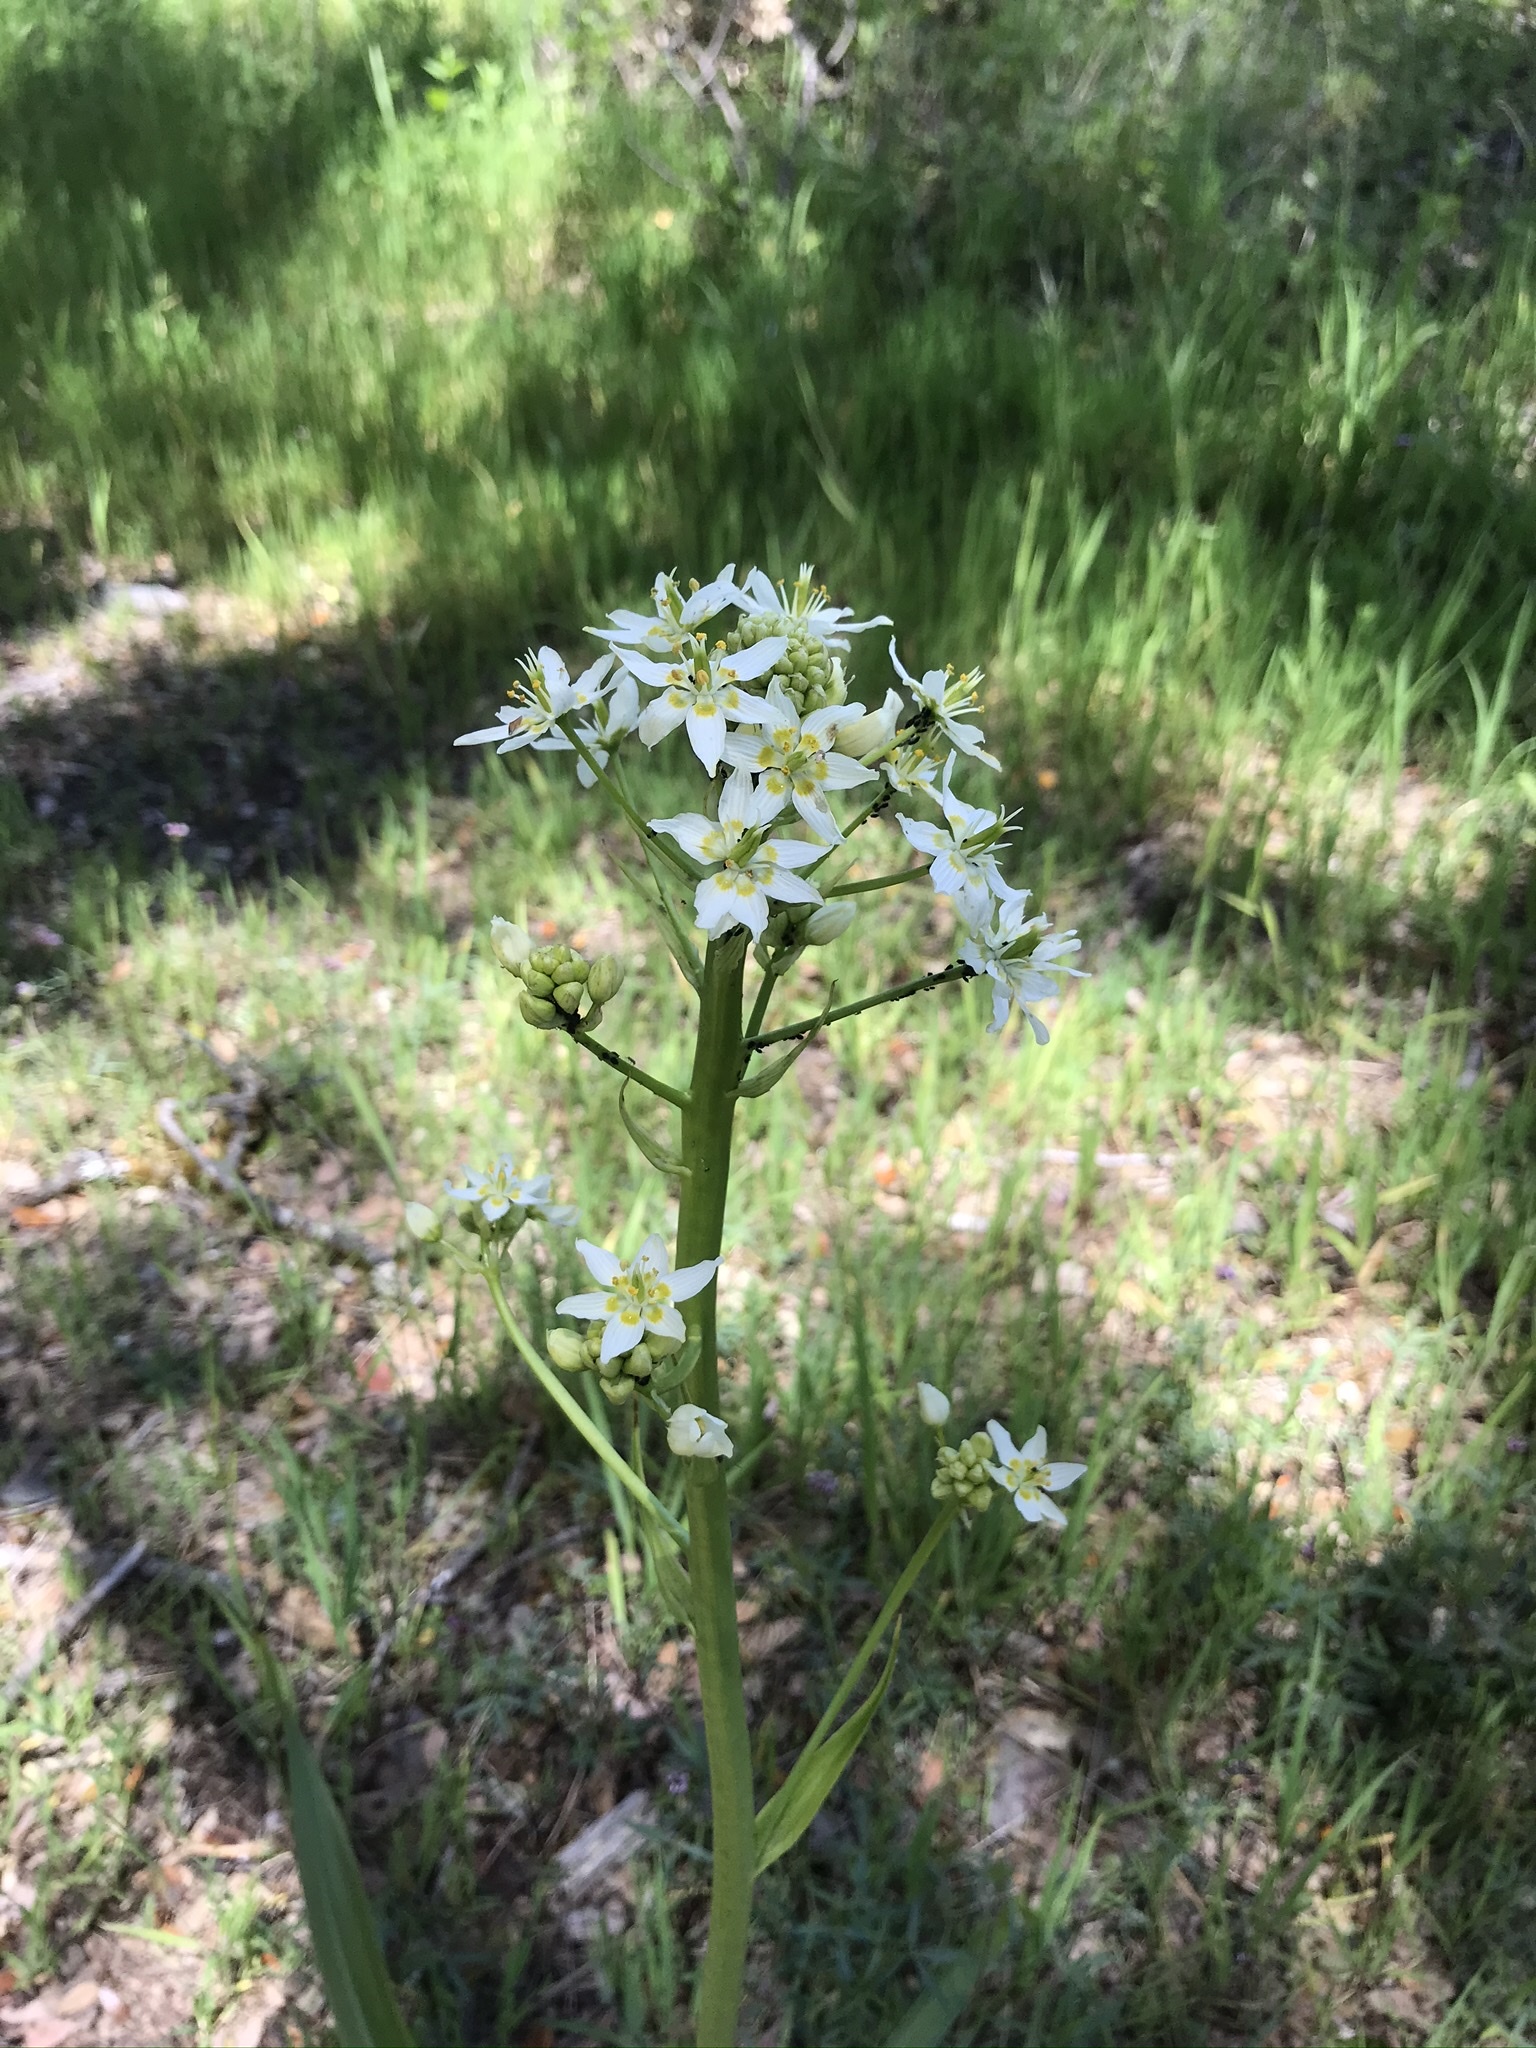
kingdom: Plantae
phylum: Tracheophyta
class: Liliopsida
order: Liliales
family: Melanthiaceae
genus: Toxicoscordion
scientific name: Toxicoscordion fremontii
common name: Fremont's death camas
